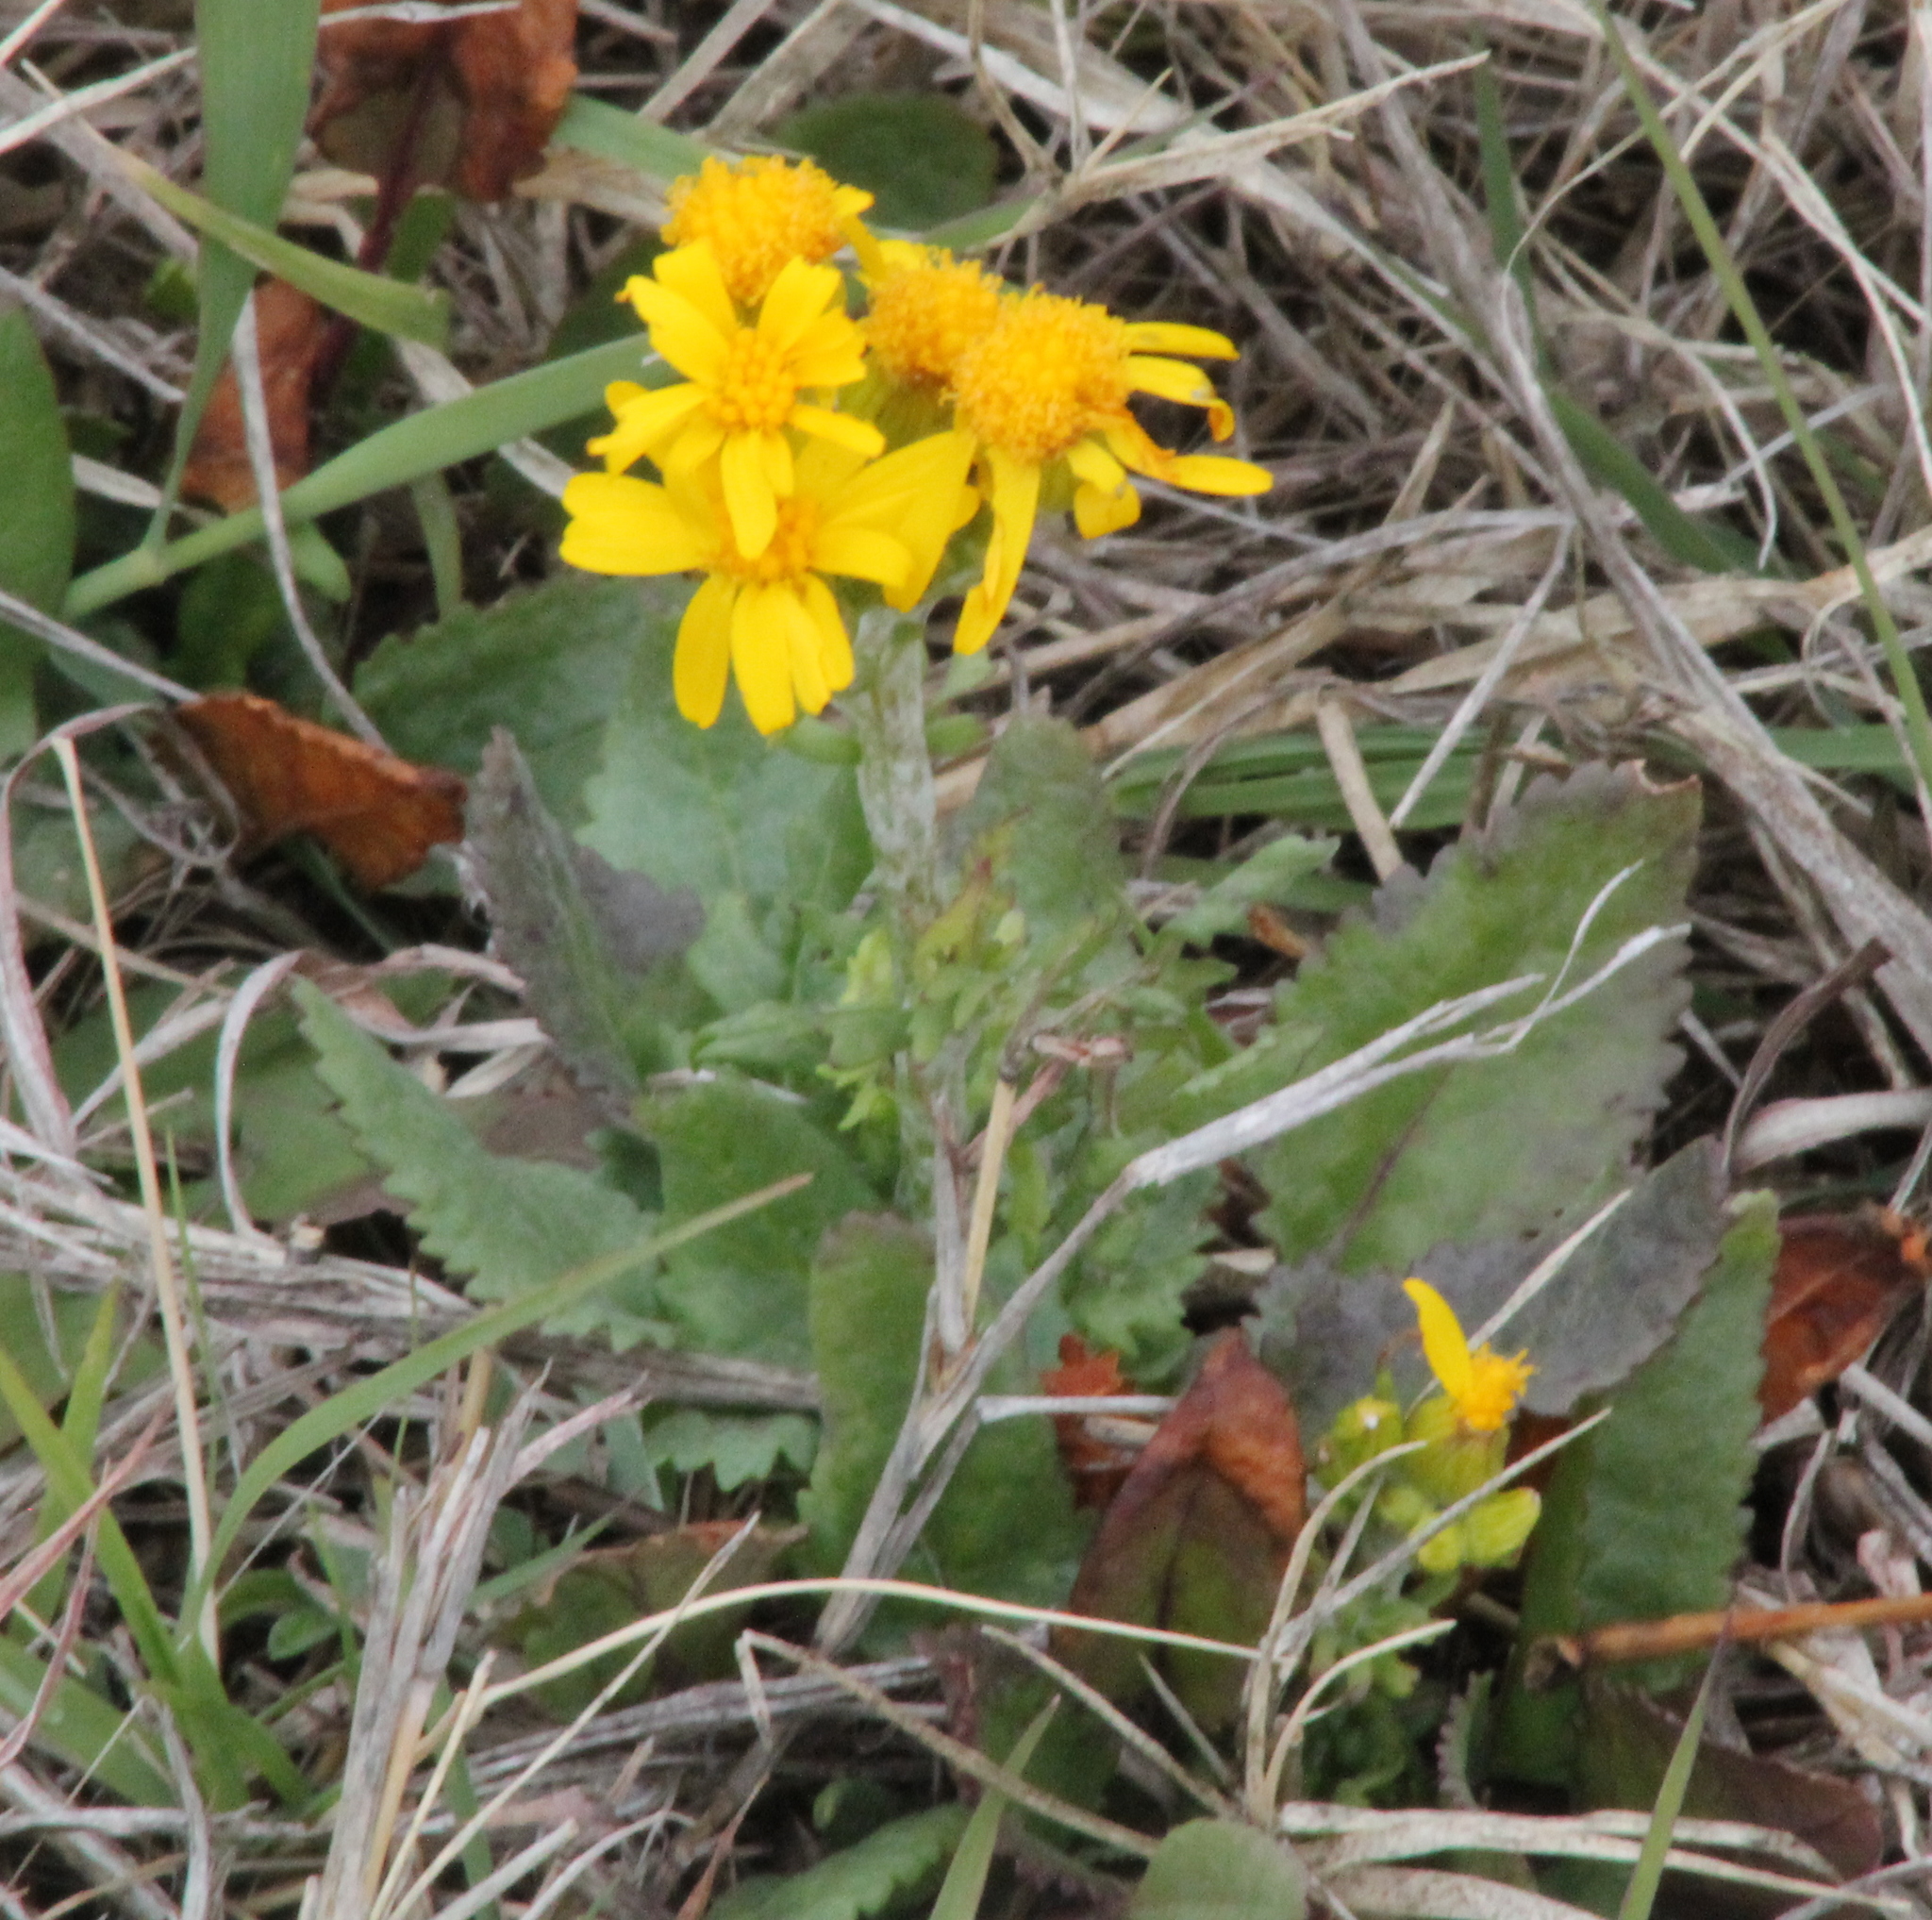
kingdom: Plantae
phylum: Tracheophyta
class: Magnoliopsida
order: Asterales
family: Asteraceae
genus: Packera
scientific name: Packera plattensis
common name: Prairie groundsel
